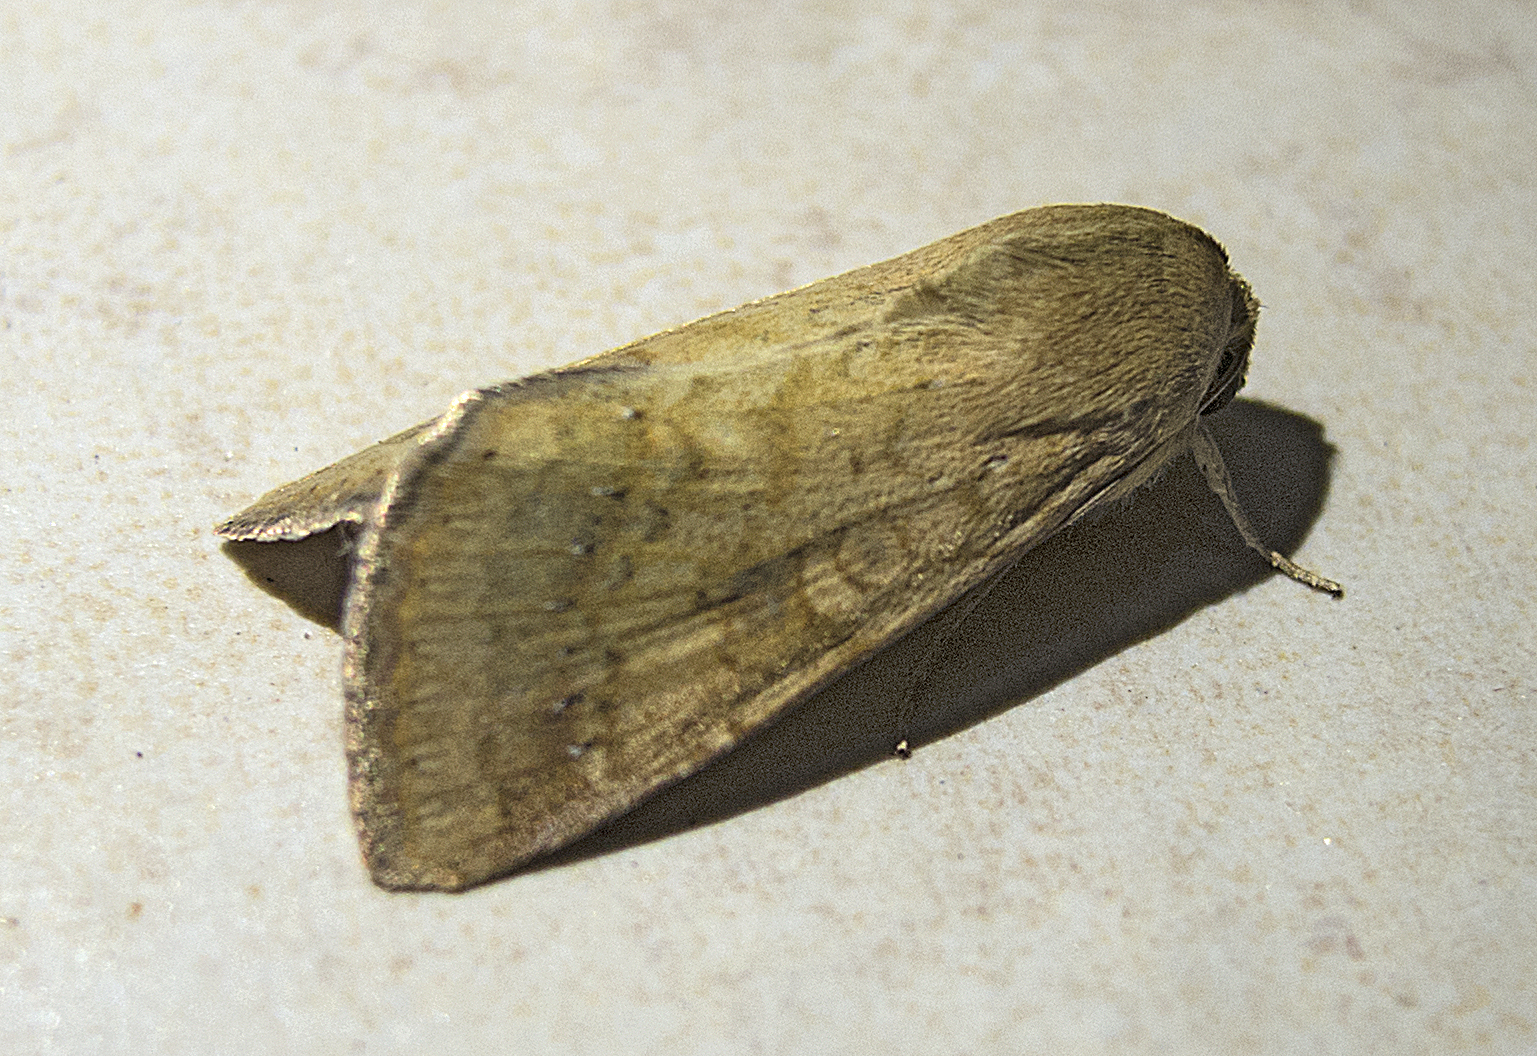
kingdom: Animalia
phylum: Arthropoda
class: Insecta
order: Lepidoptera
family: Noctuidae
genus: Helicoverpa
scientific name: Helicoverpa armigera
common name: Cotton bollworm
